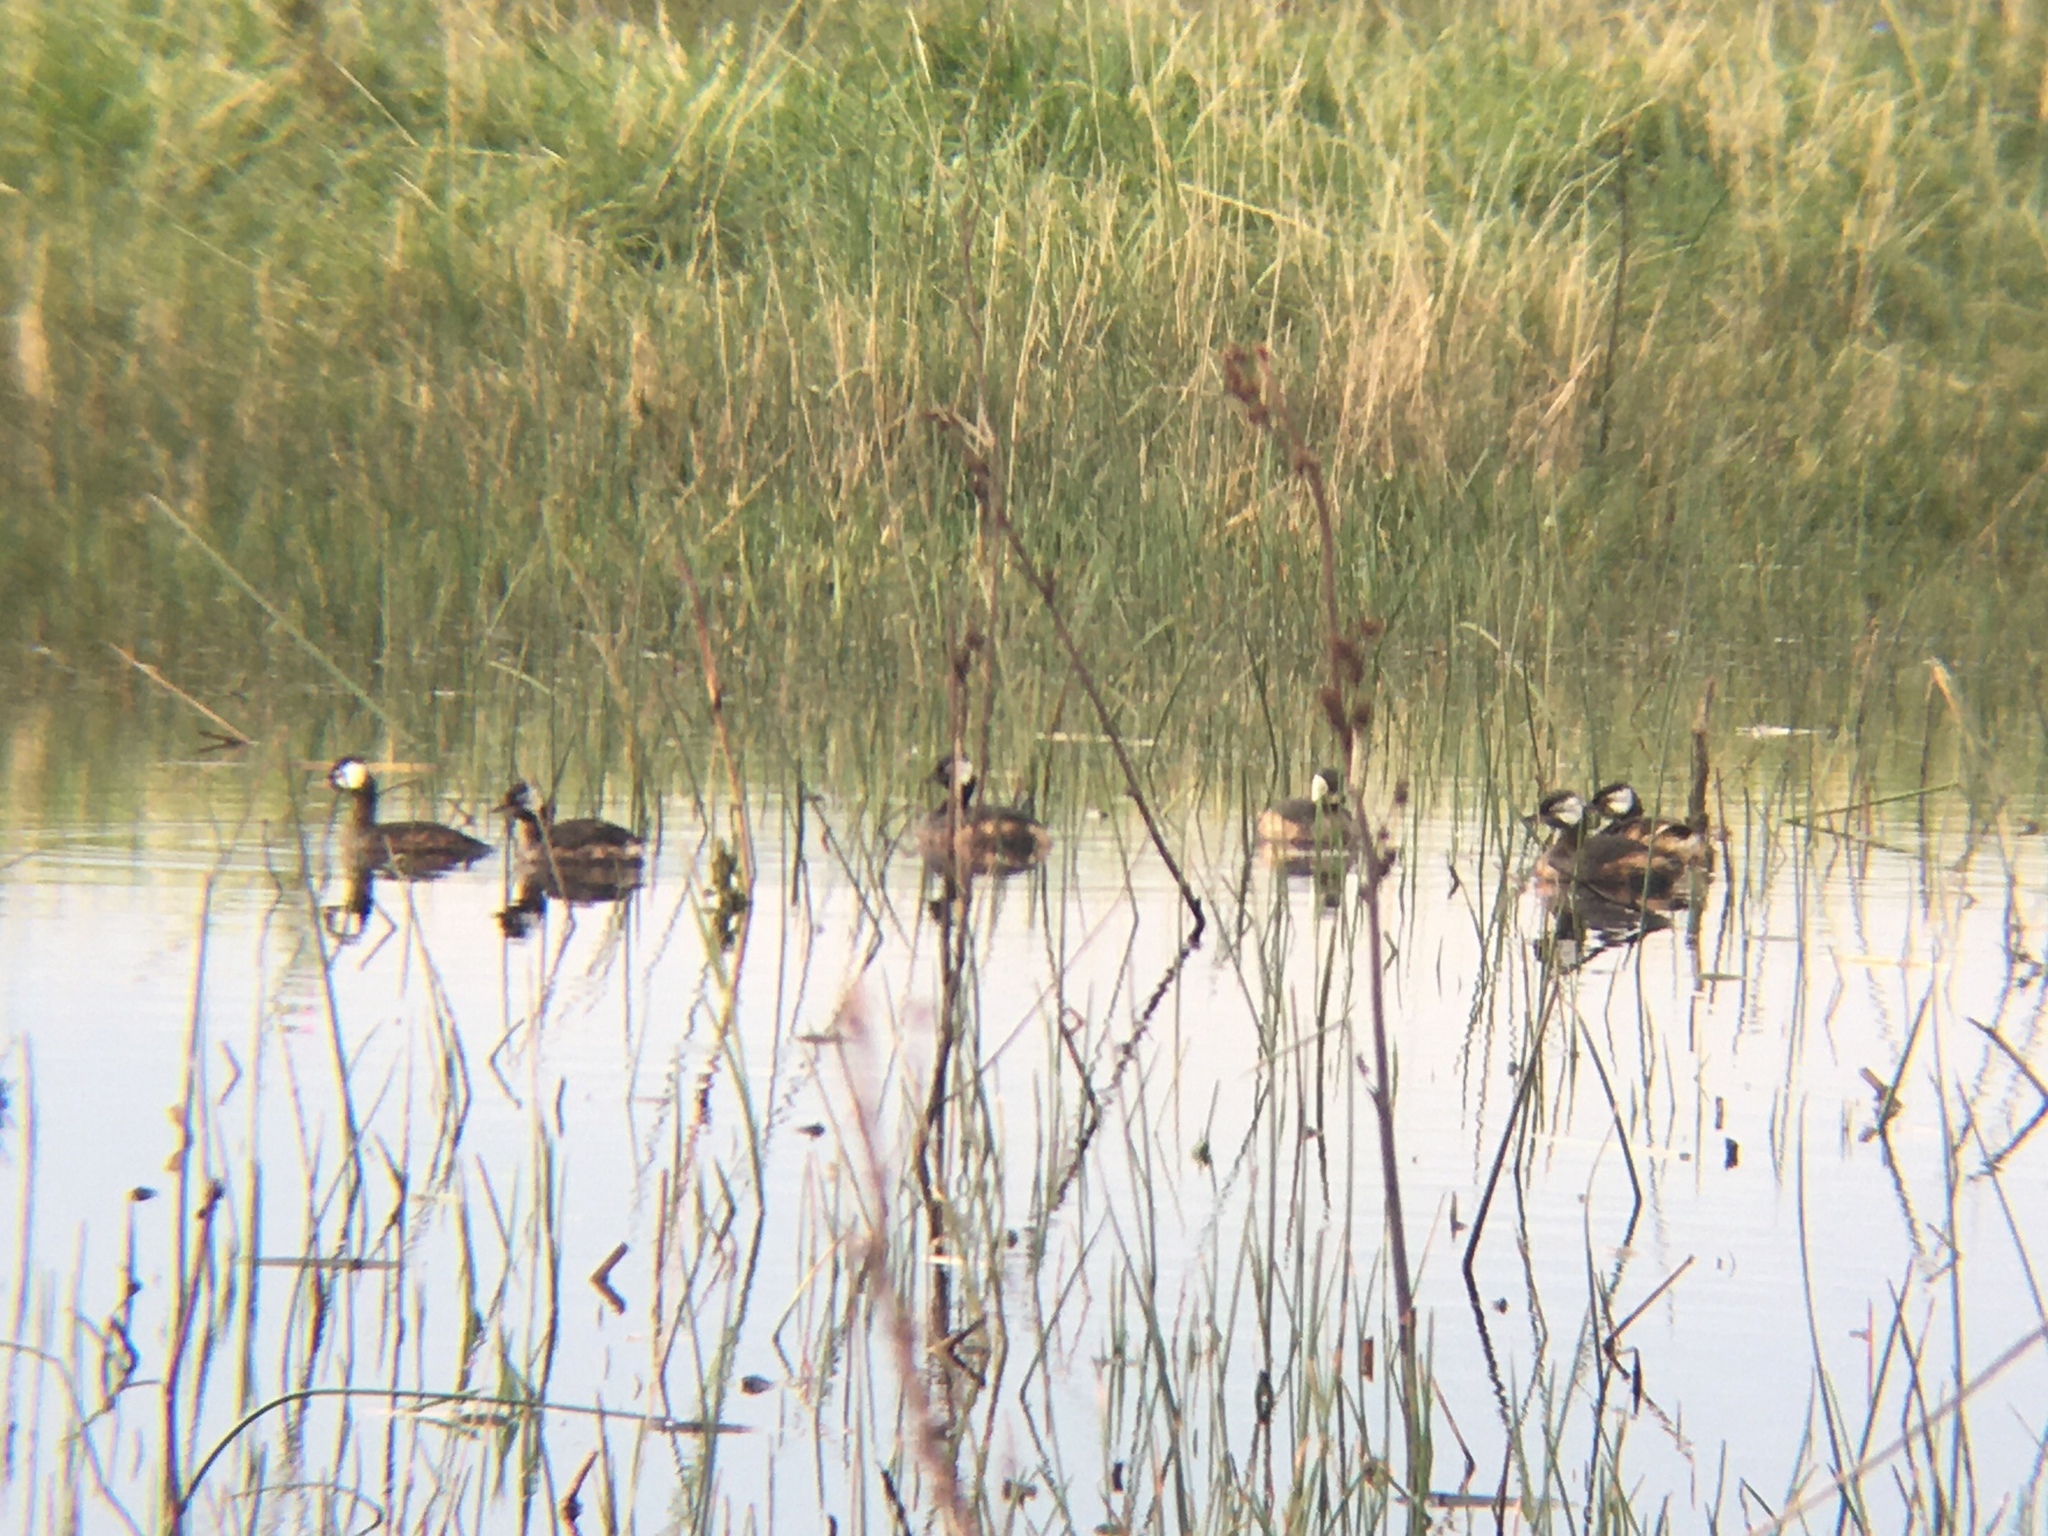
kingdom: Animalia
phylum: Chordata
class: Aves
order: Podicipediformes
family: Podicipedidae
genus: Rollandia
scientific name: Rollandia rolland
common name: White-tufted grebe
